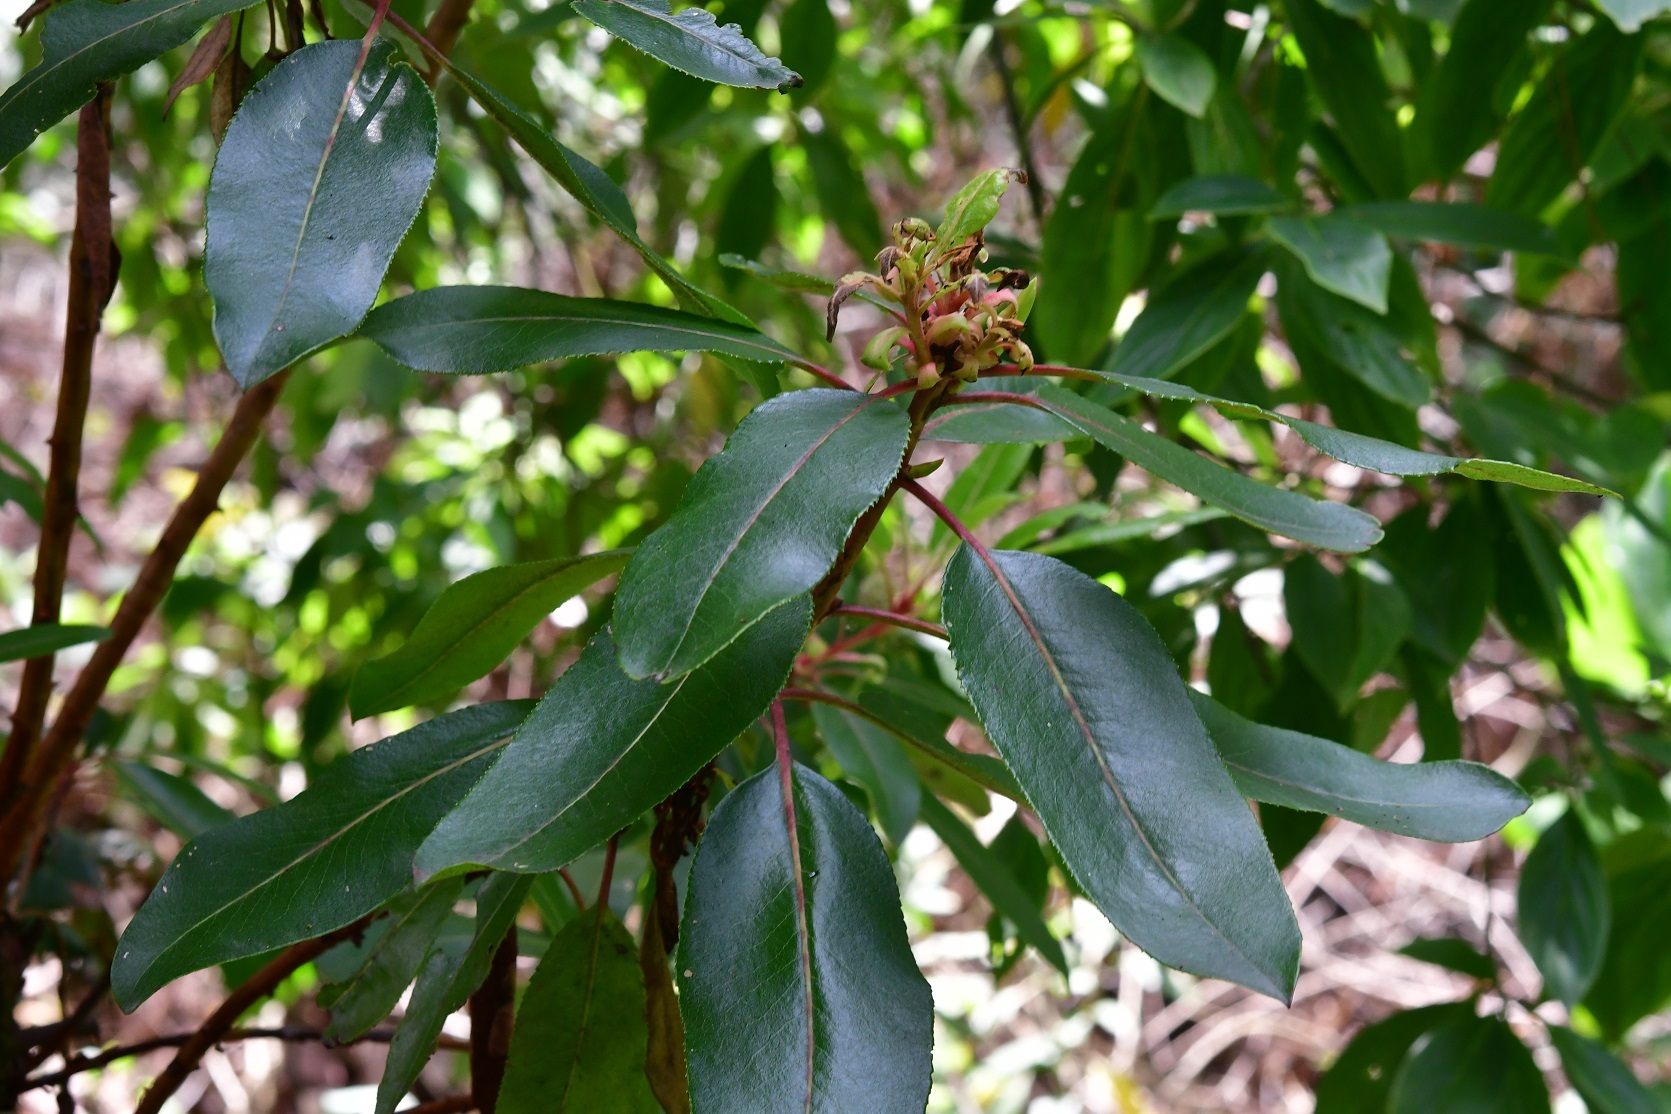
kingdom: Plantae
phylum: Tracheophyta
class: Magnoliopsida
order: Ericales
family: Ericaceae
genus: Arbutus
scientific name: Arbutus xalapensis
